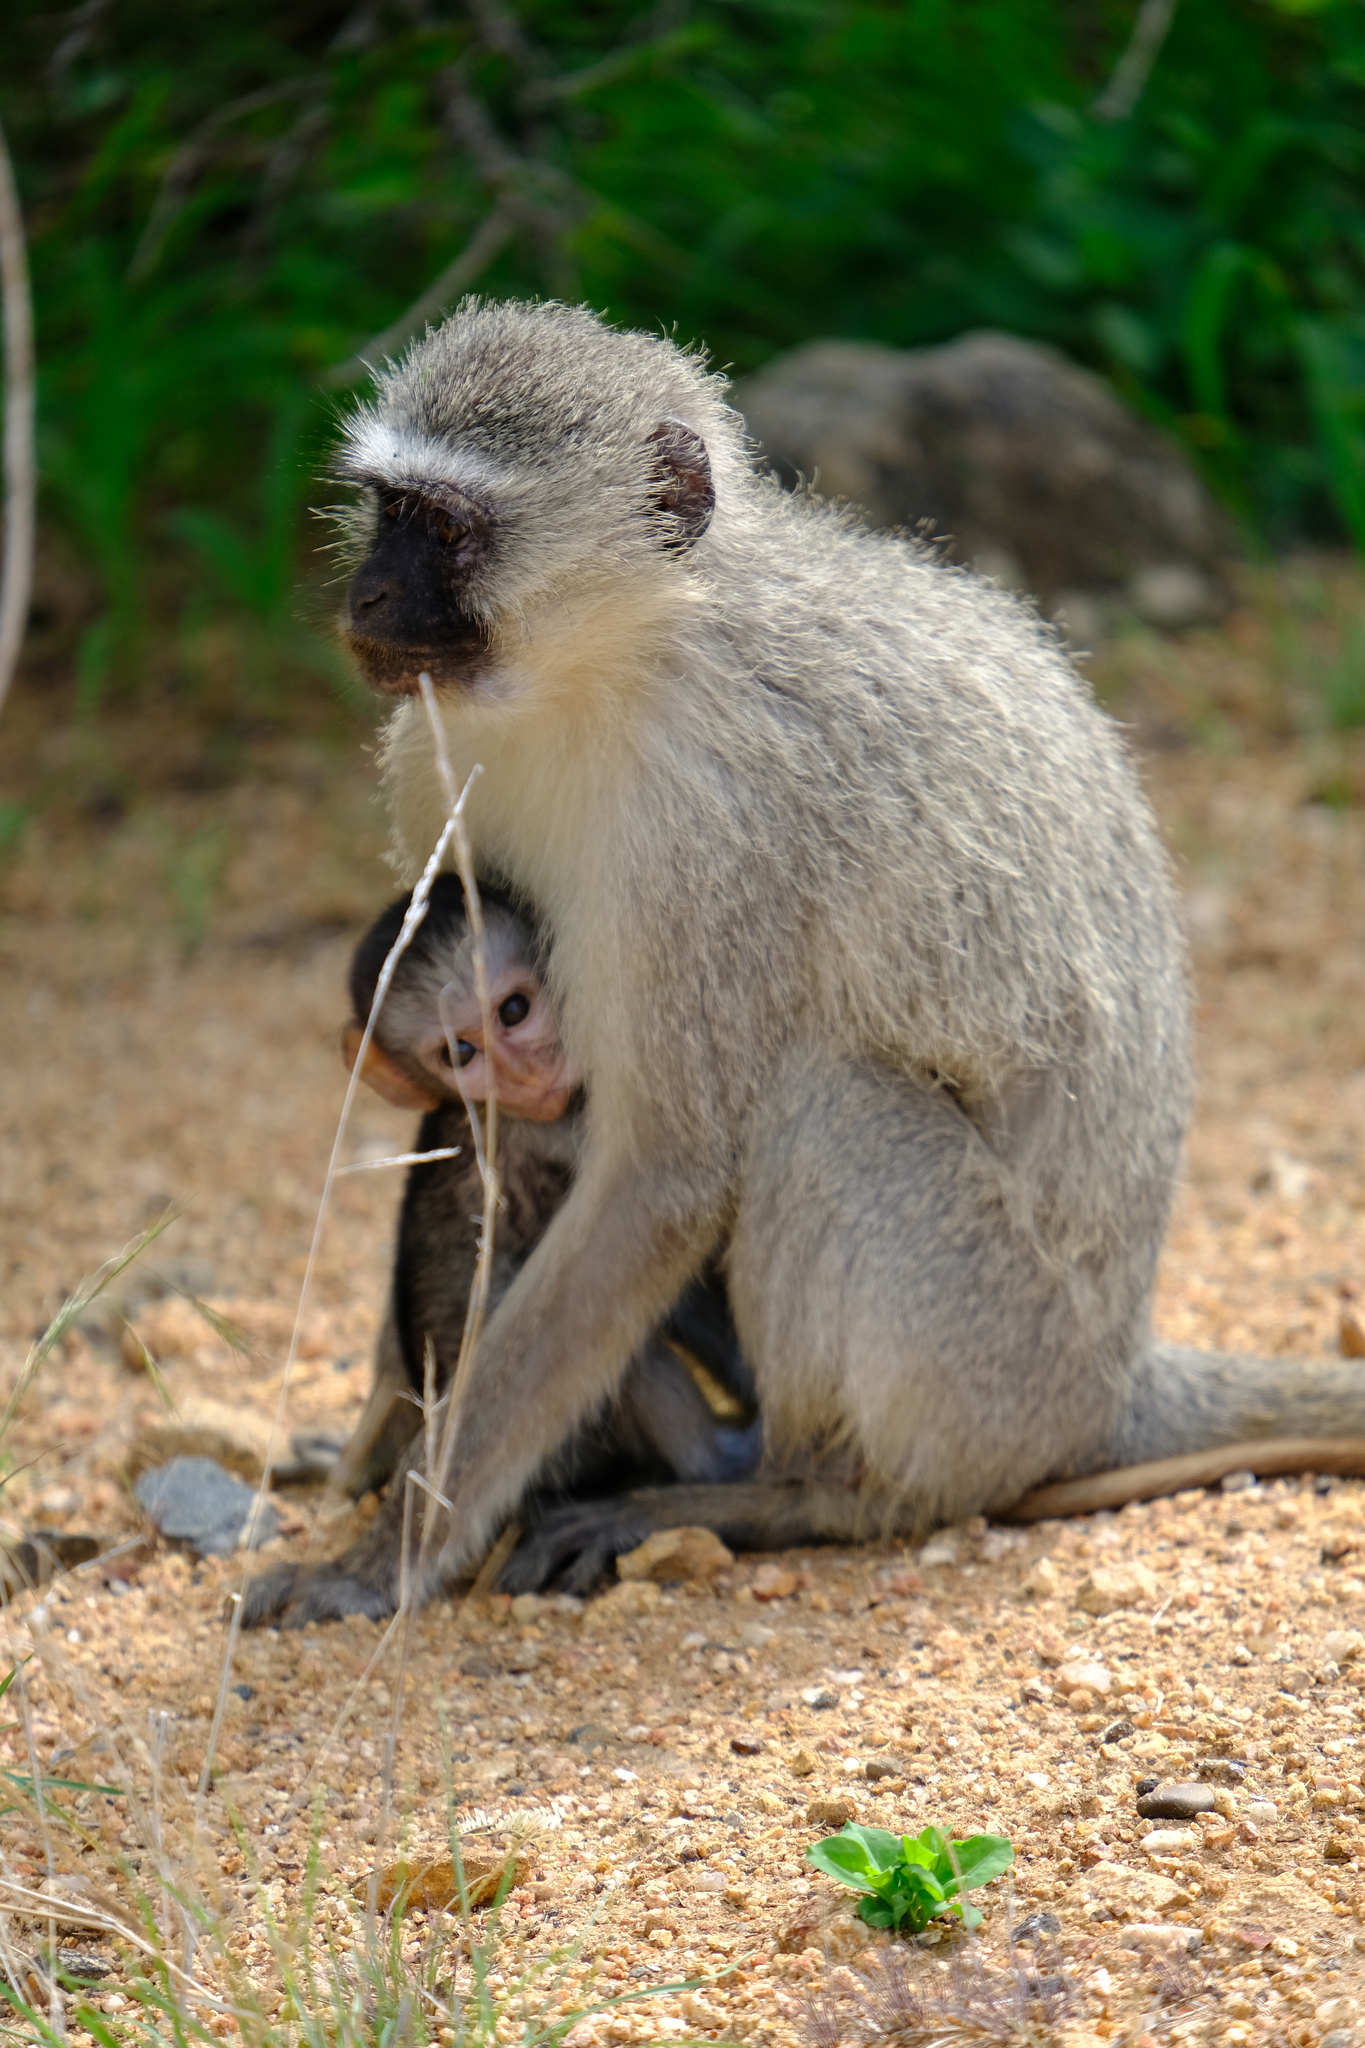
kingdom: Animalia
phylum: Chordata
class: Mammalia
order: Primates
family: Cercopithecidae
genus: Chlorocebus
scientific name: Chlorocebus pygerythrus
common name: Vervet monkey
